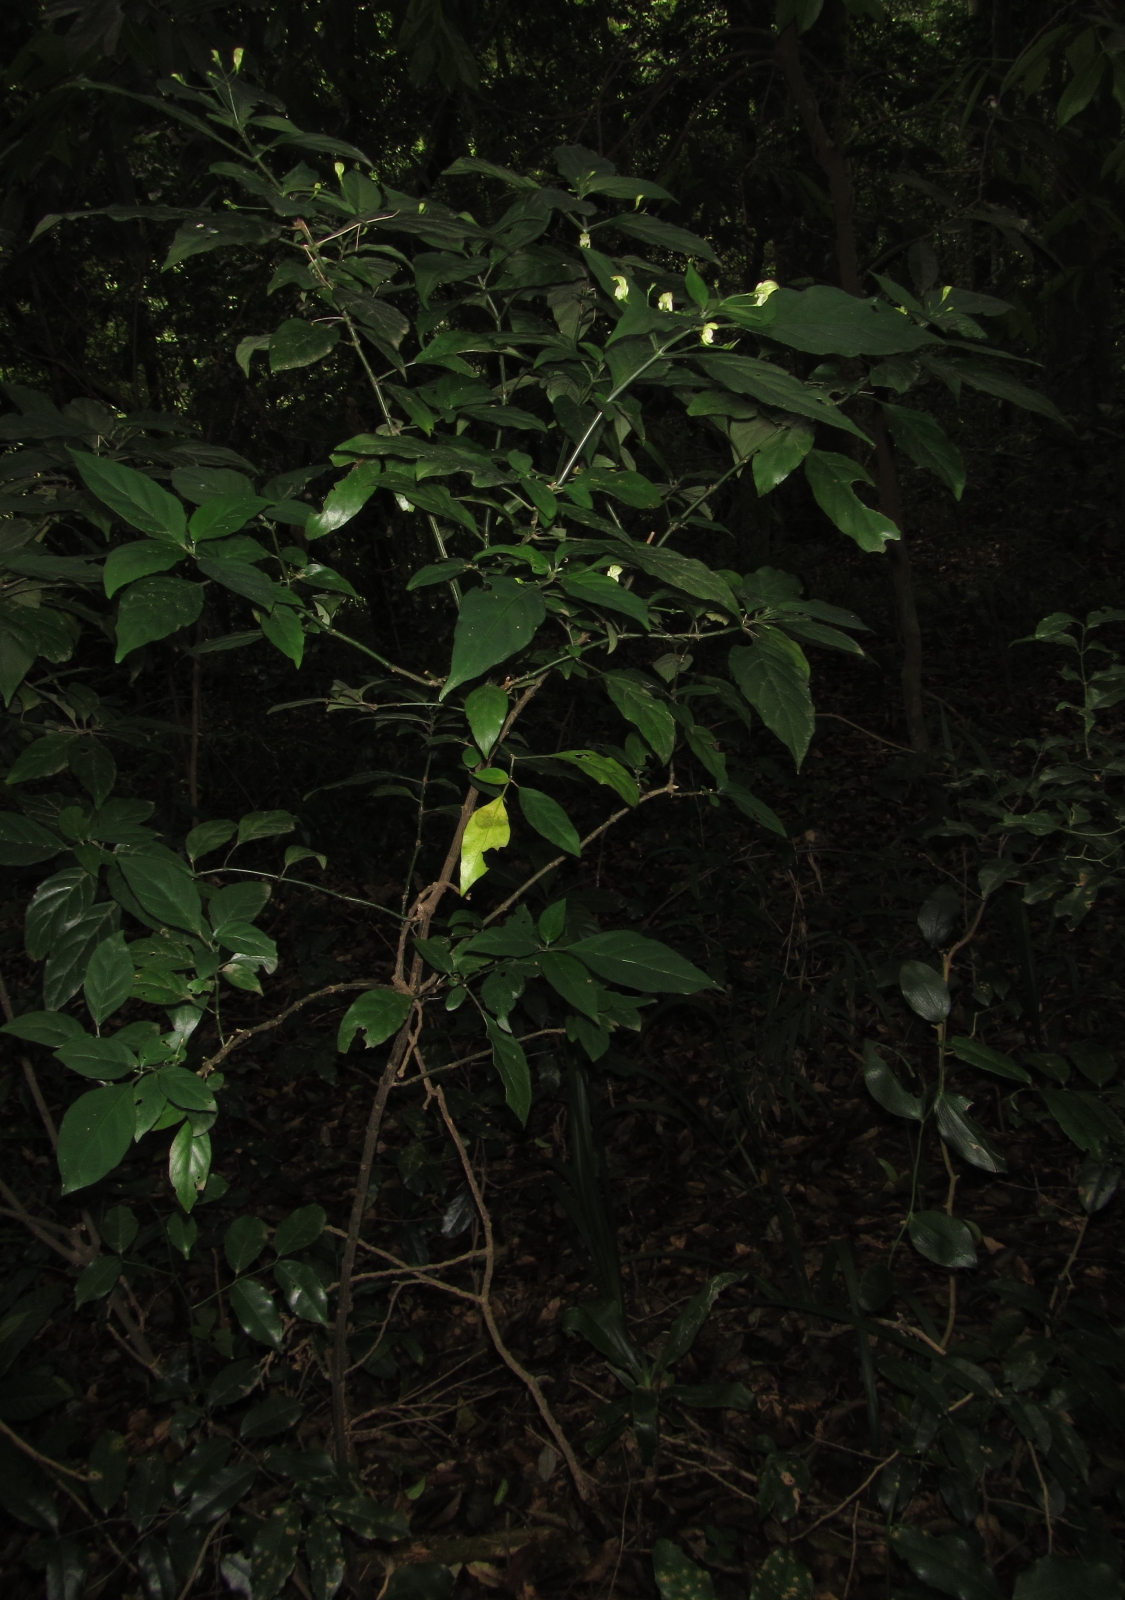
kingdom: Plantae
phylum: Tracheophyta
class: Magnoliopsida
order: Lamiales
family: Acanthaceae
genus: Justicia
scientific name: Justicia campylostemon
